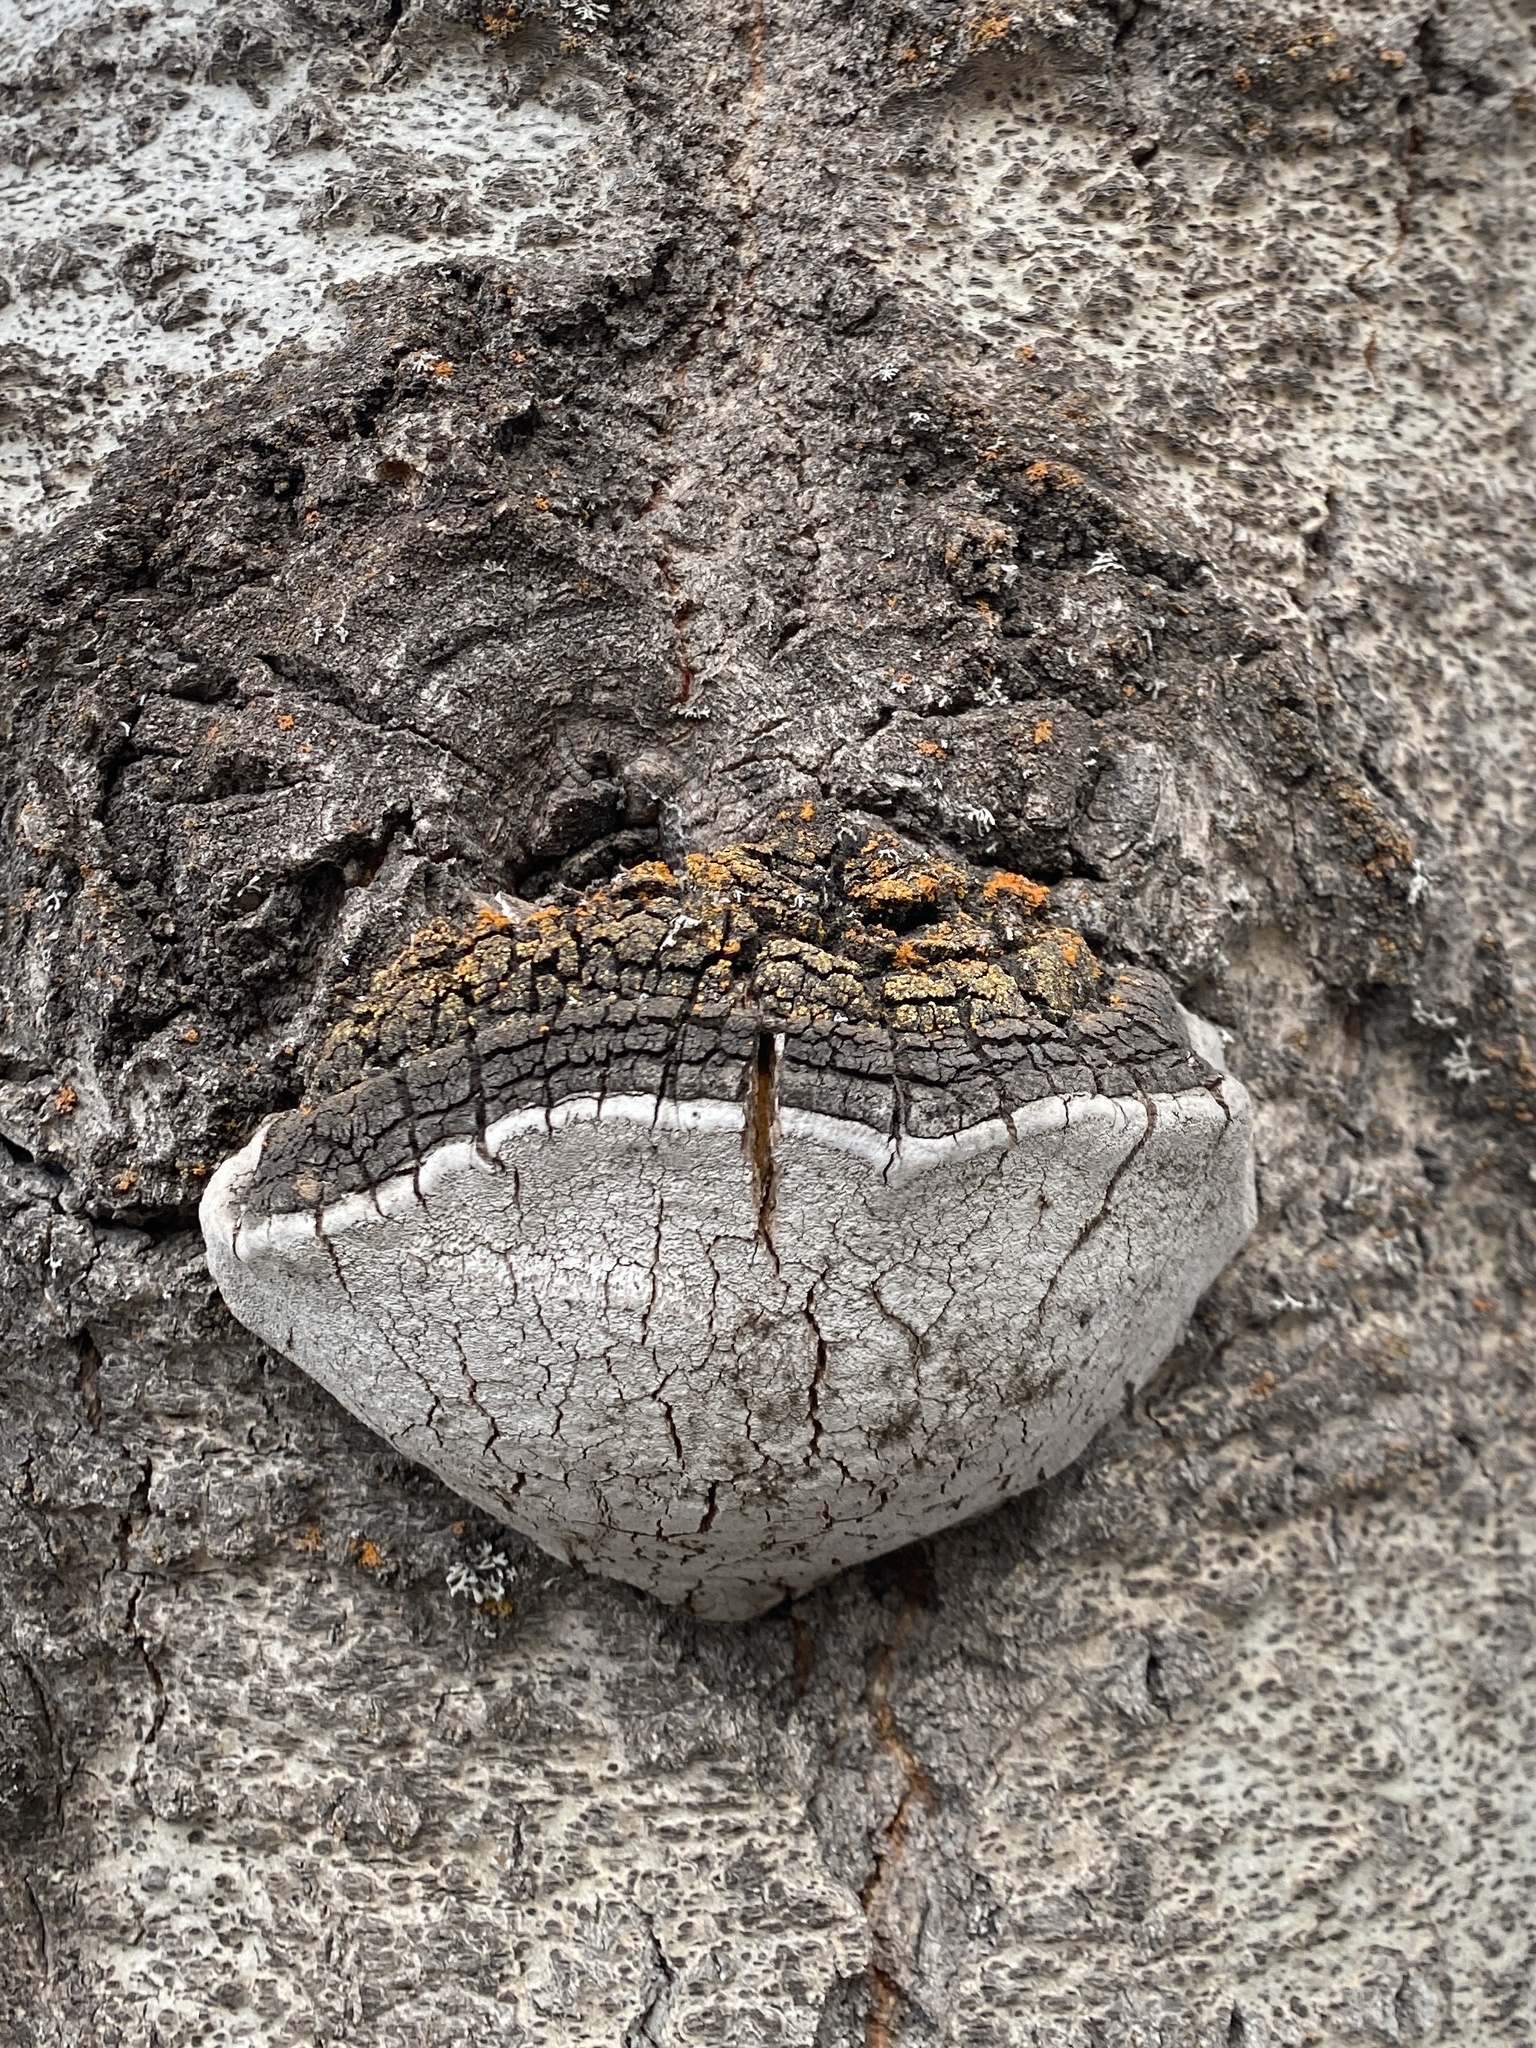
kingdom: Fungi
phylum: Basidiomycota
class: Agaricomycetes
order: Hymenochaetales
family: Hymenochaetaceae
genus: Phellinus
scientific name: Phellinus tremulae
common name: Aspen bracket
